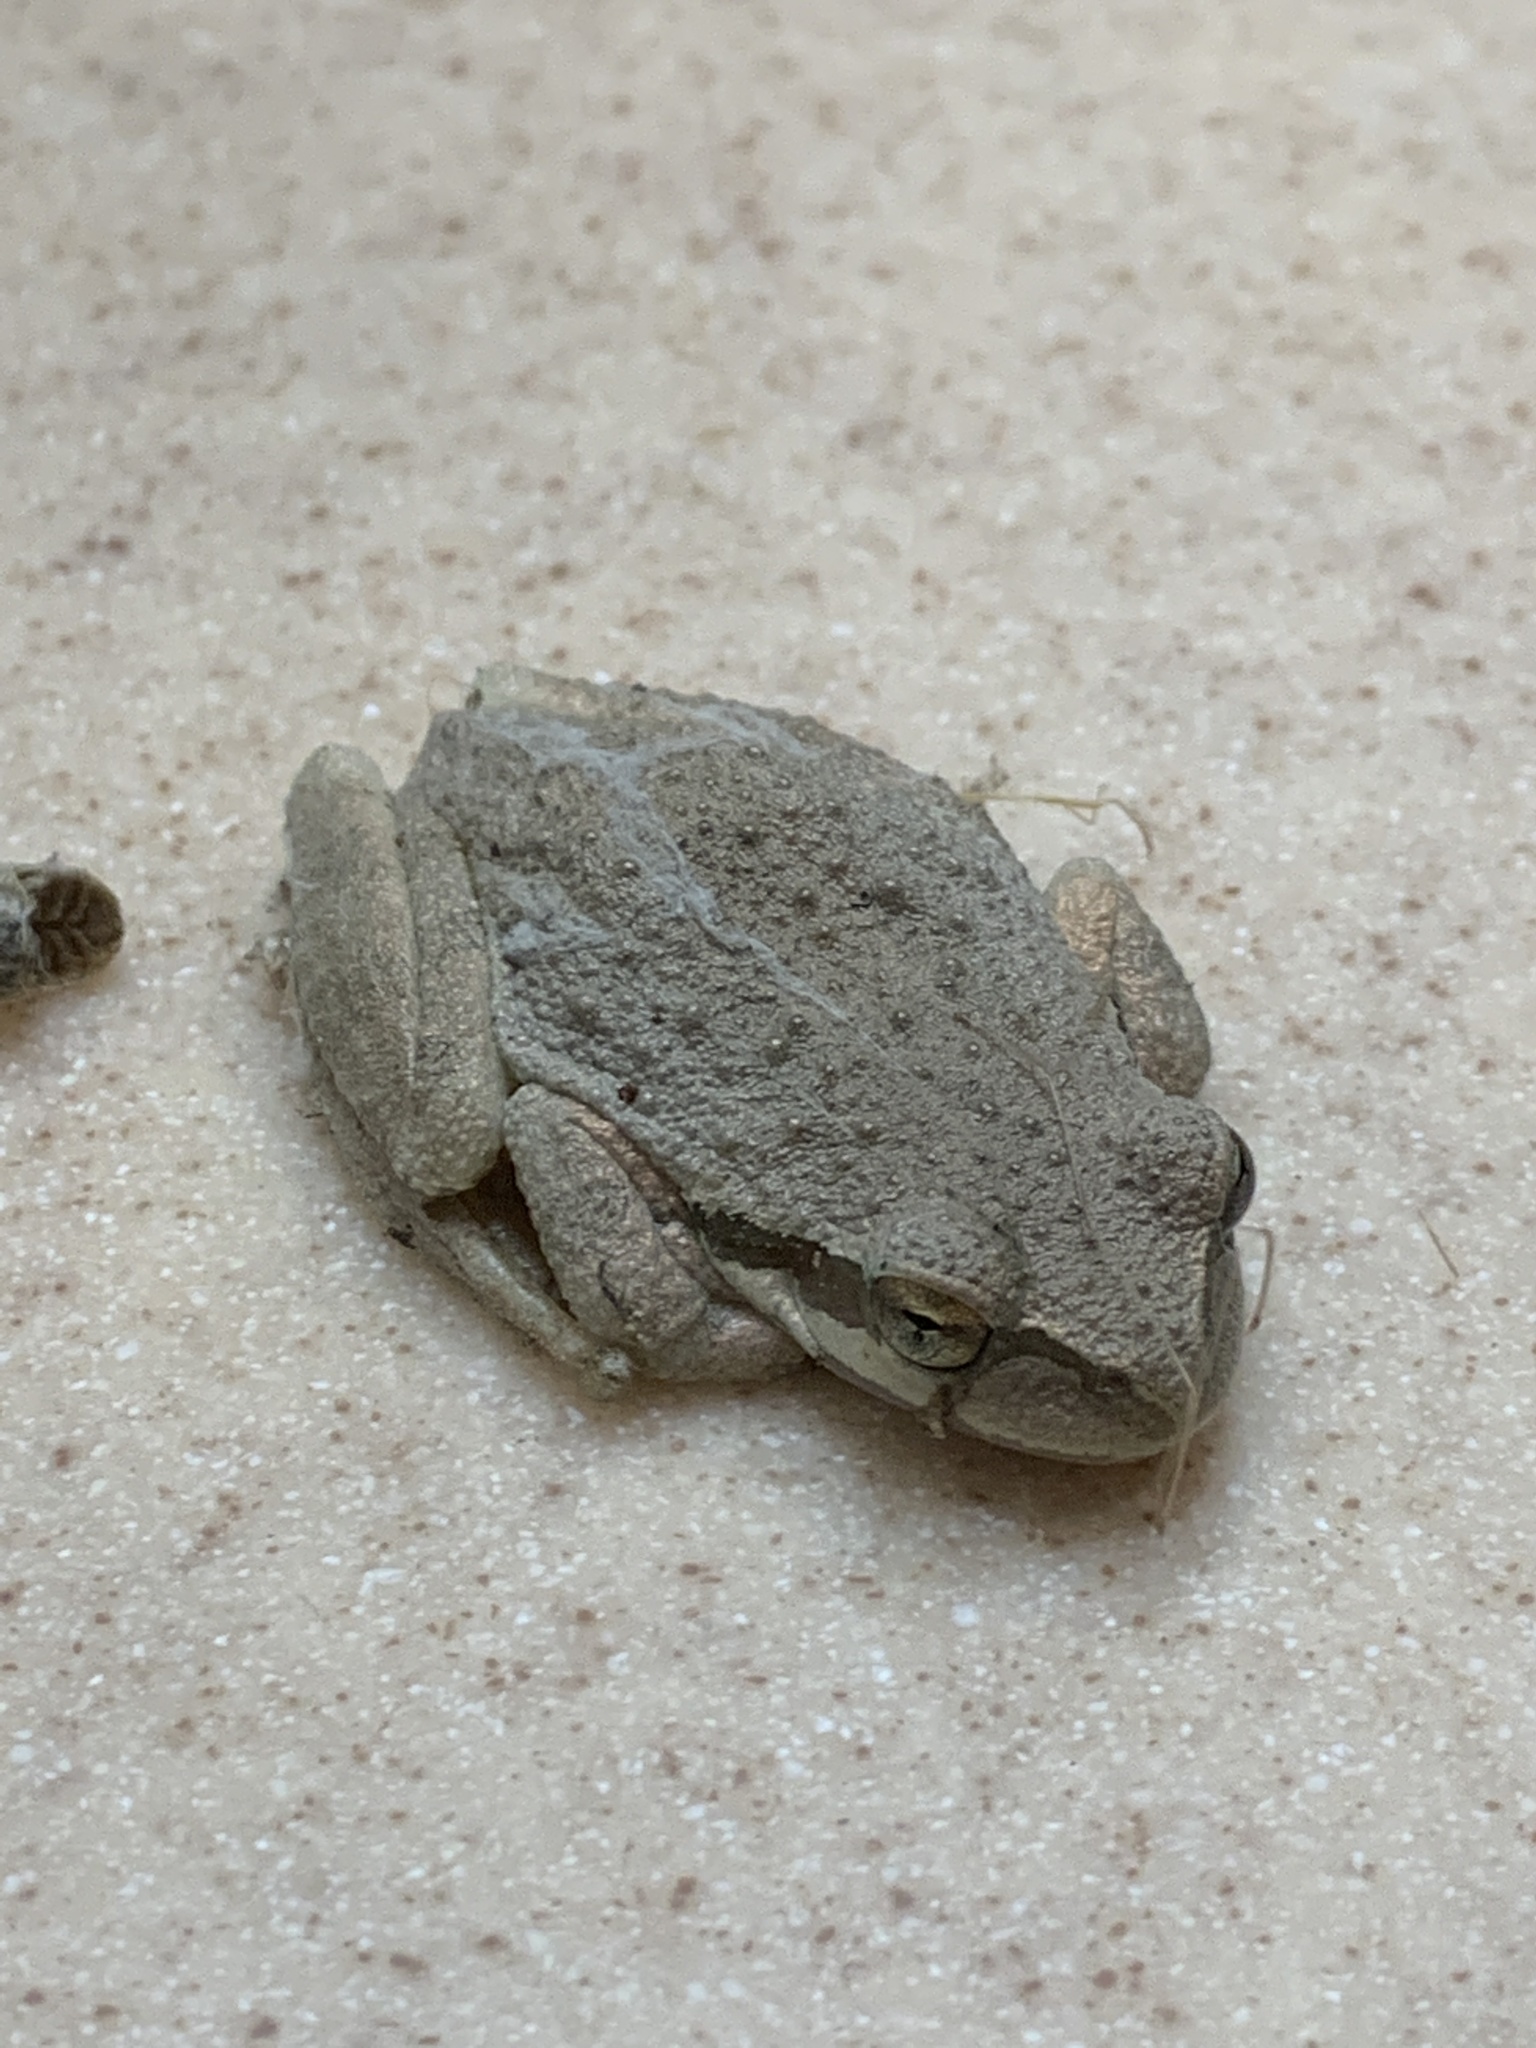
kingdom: Animalia
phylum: Chordata
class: Amphibia
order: Anura
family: Hylidae
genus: Pseudacris
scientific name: Pseudacris regilla
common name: Pacific chorus frog
